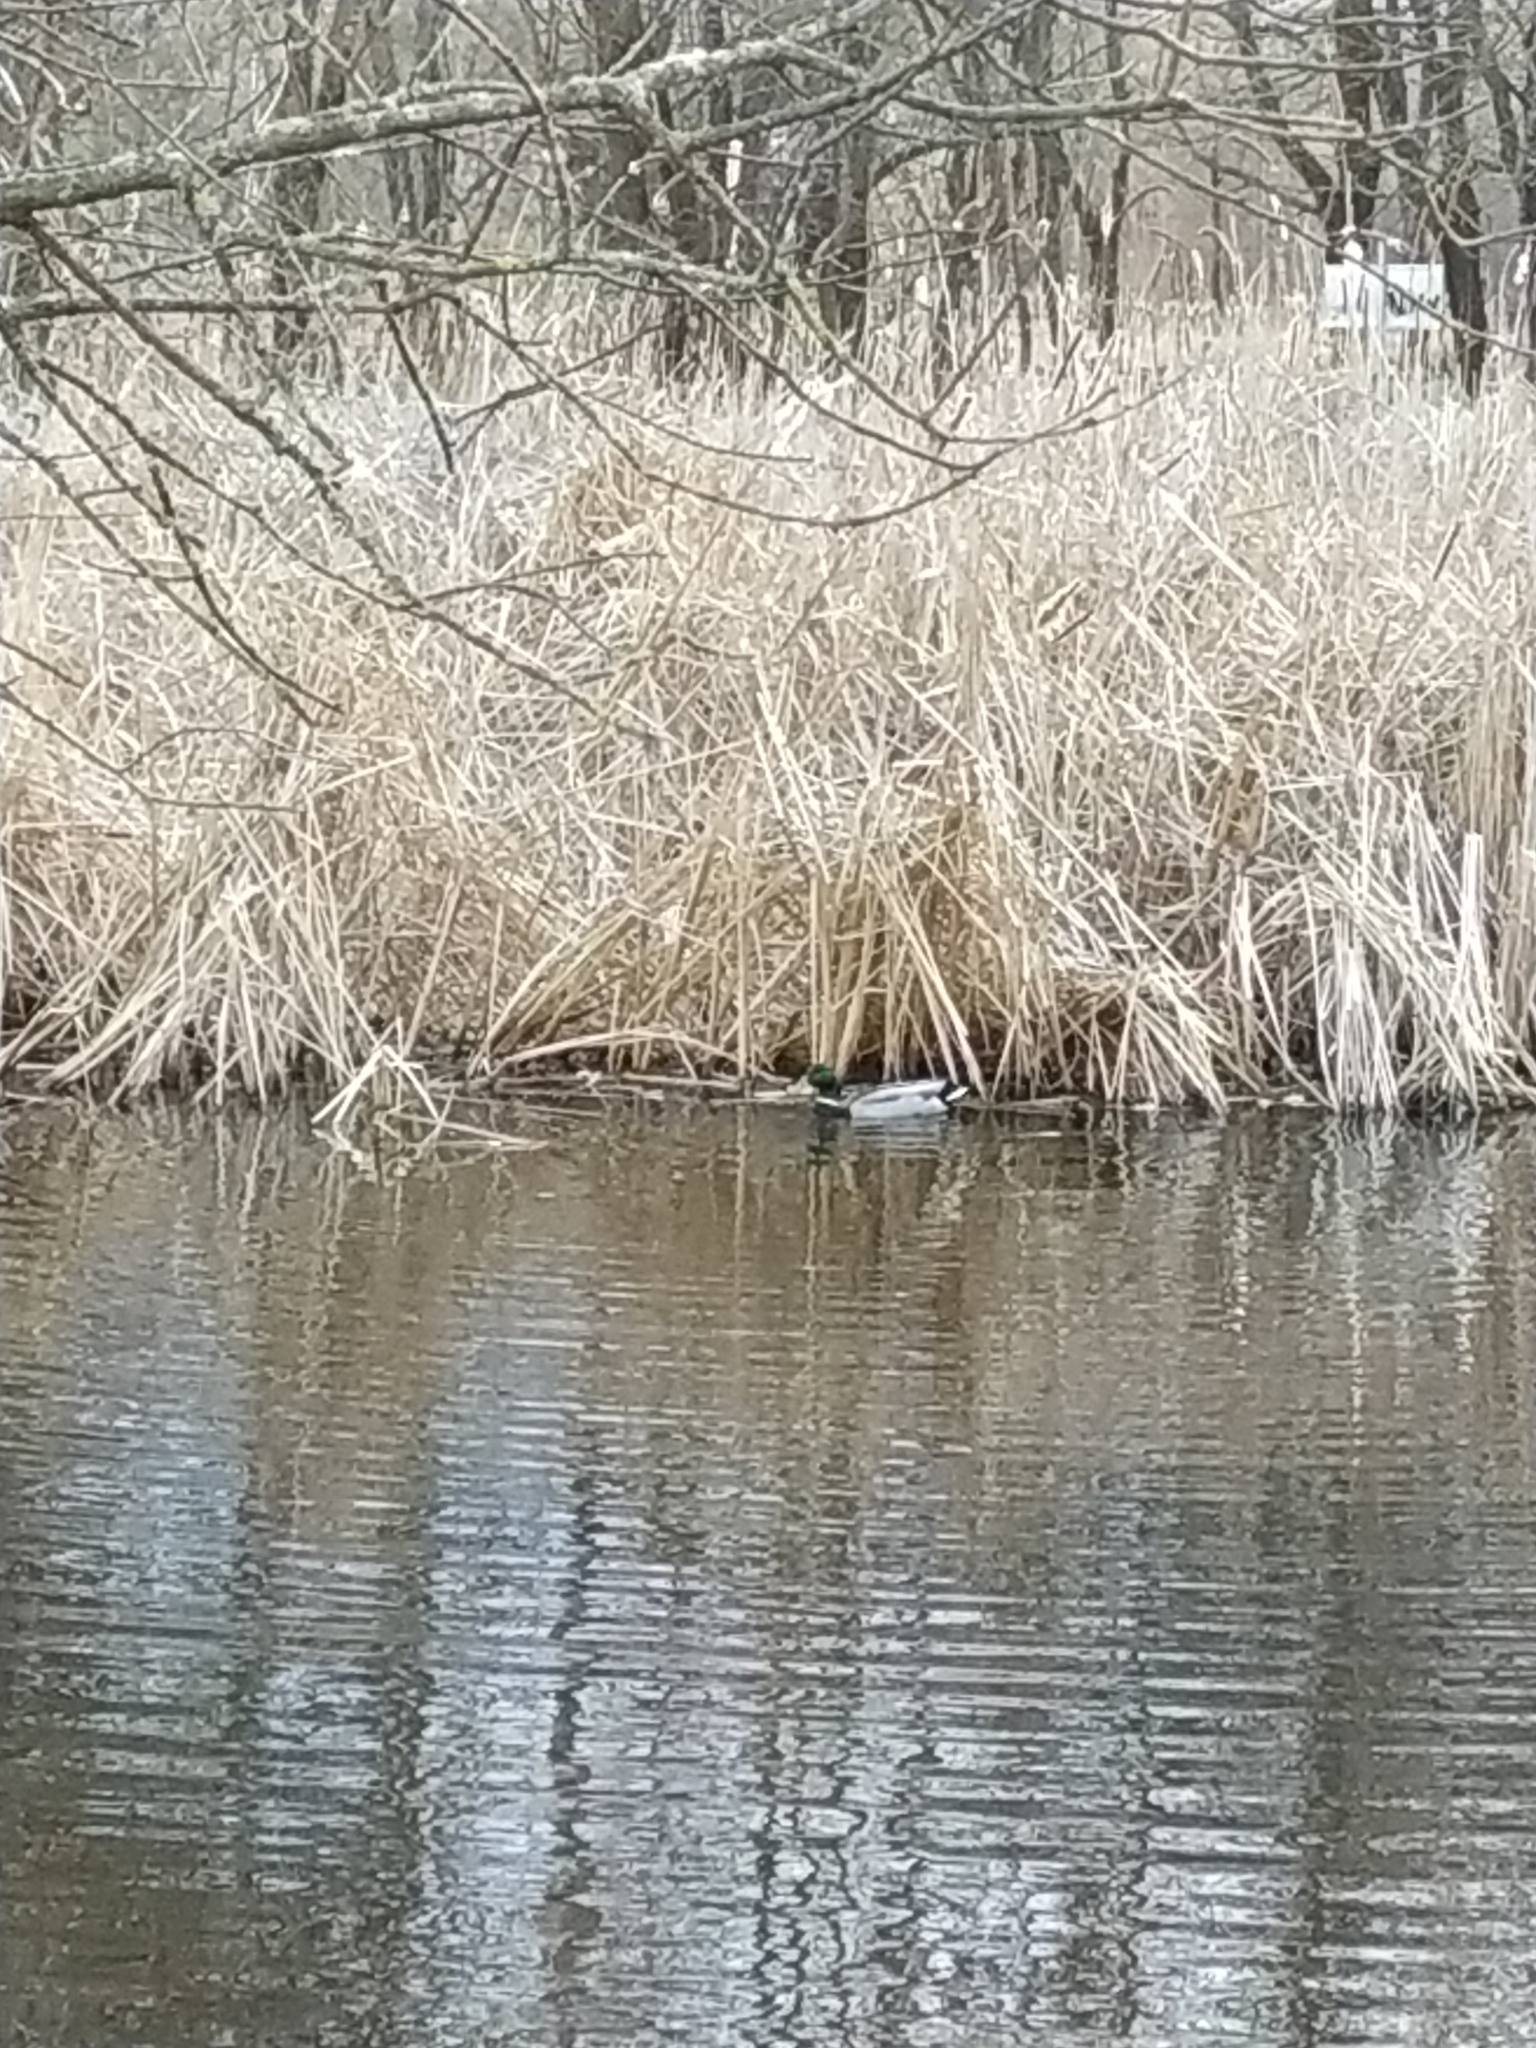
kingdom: Animalia
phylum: Chordata
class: Aves
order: Anseriformes
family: Anatidae
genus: Anas
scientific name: Anas platyrhynchos
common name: Mallard
